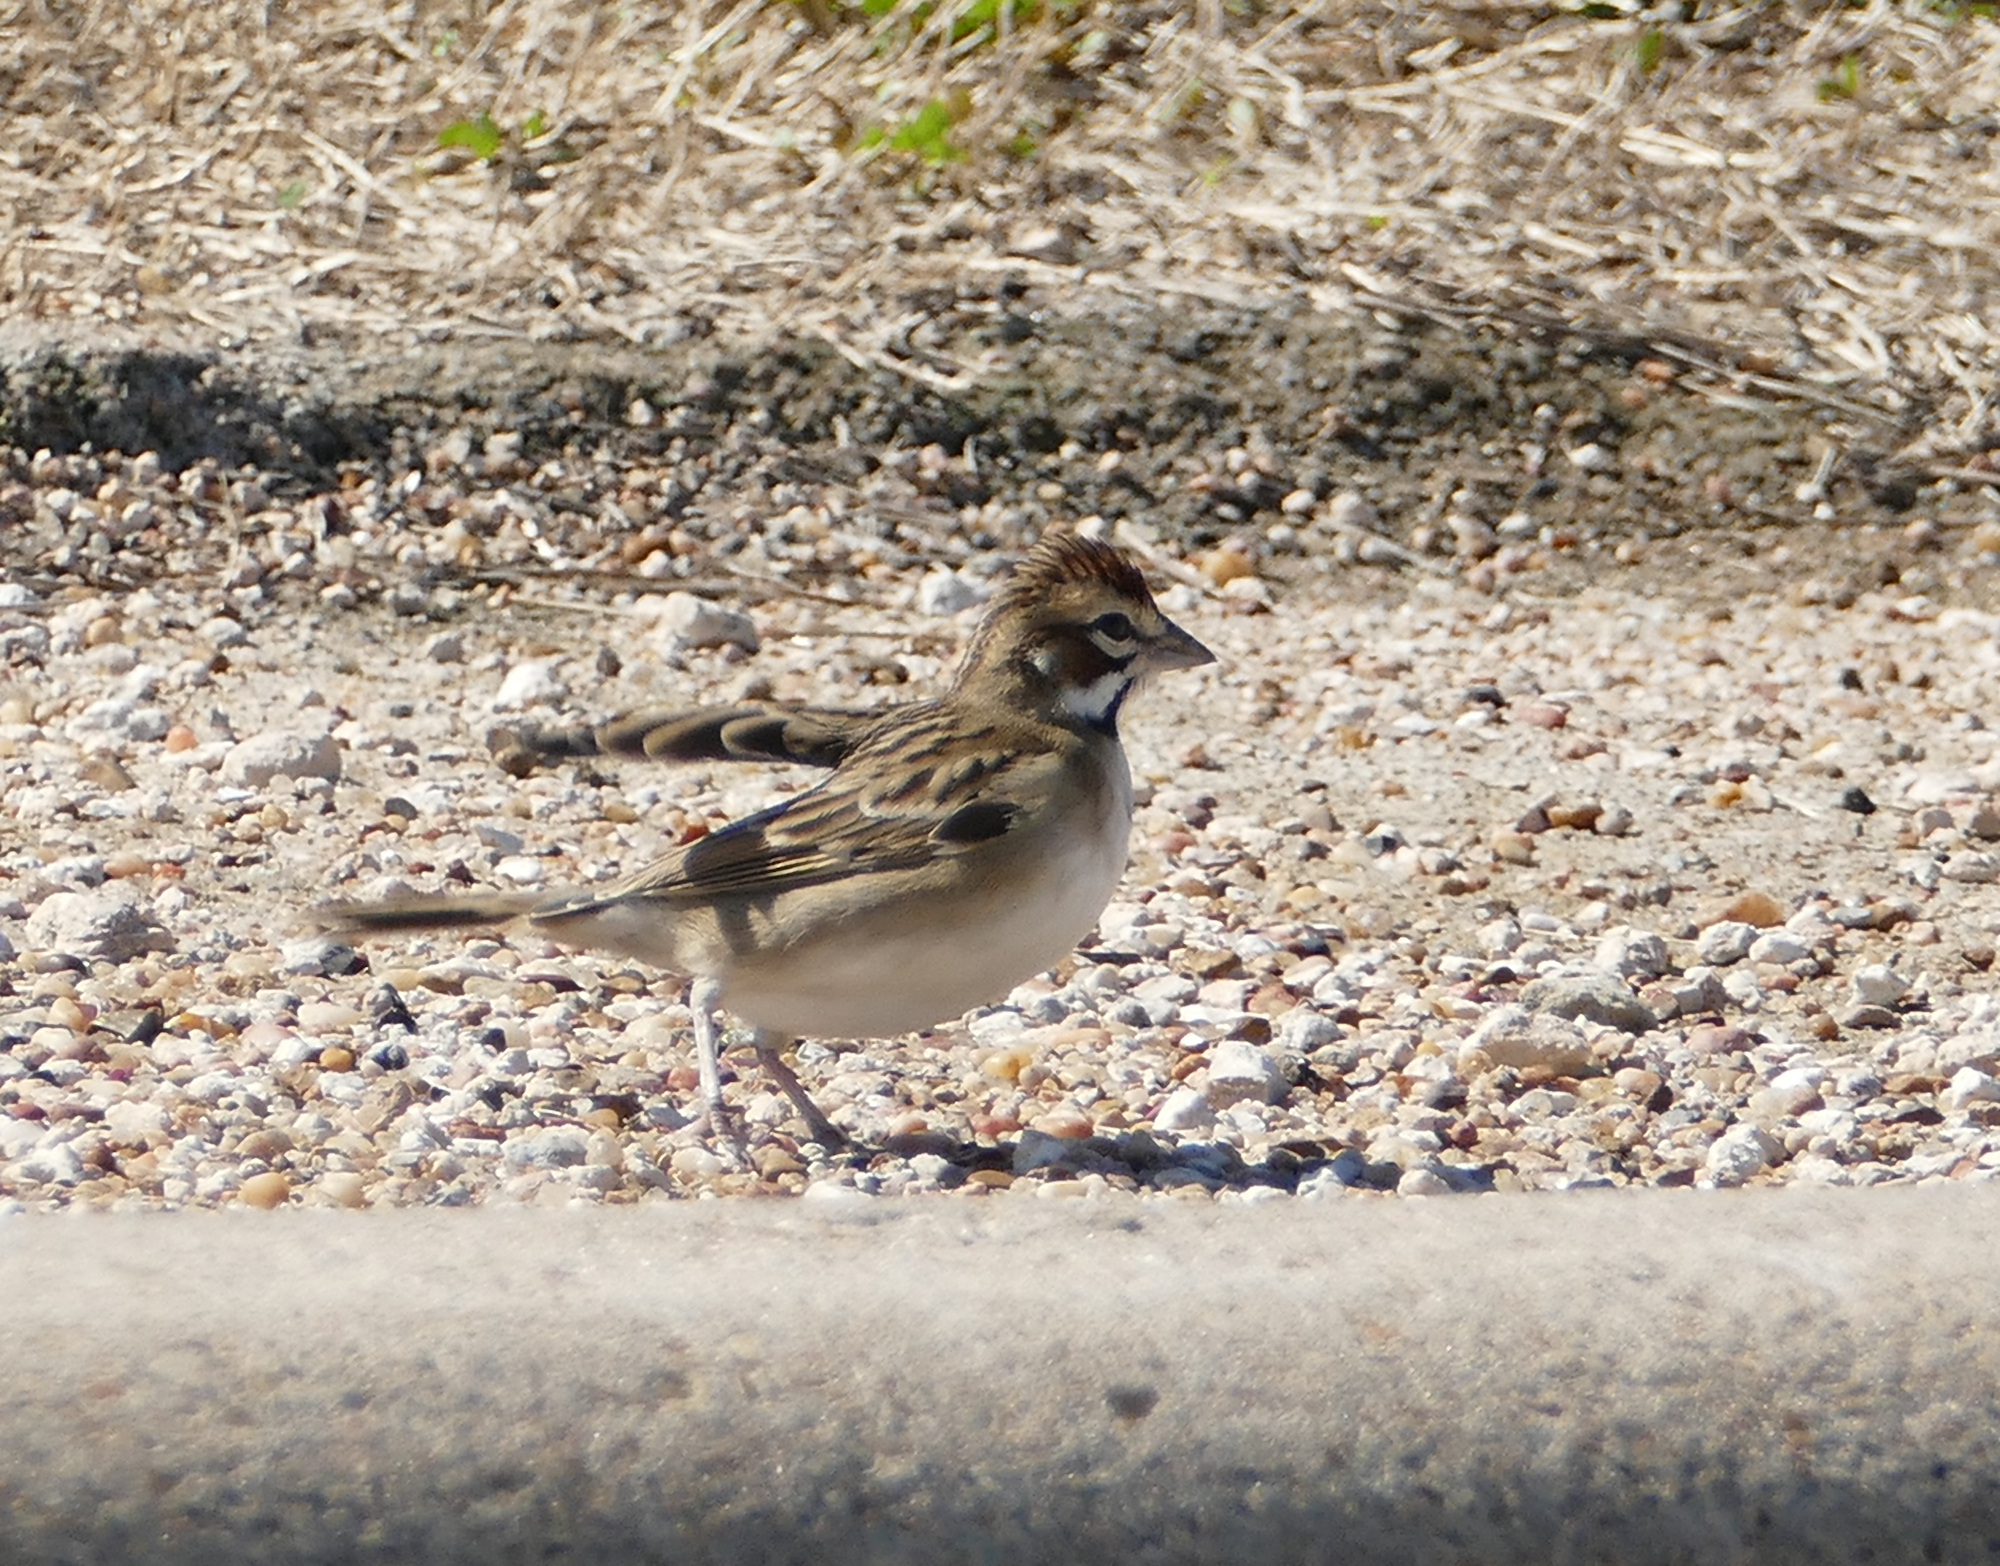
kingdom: Animalia
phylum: Chordata
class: Aves
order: Passeriformes
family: Passerellidae
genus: Chondestes
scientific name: Chondestes grammacus
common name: Lark sparrow
